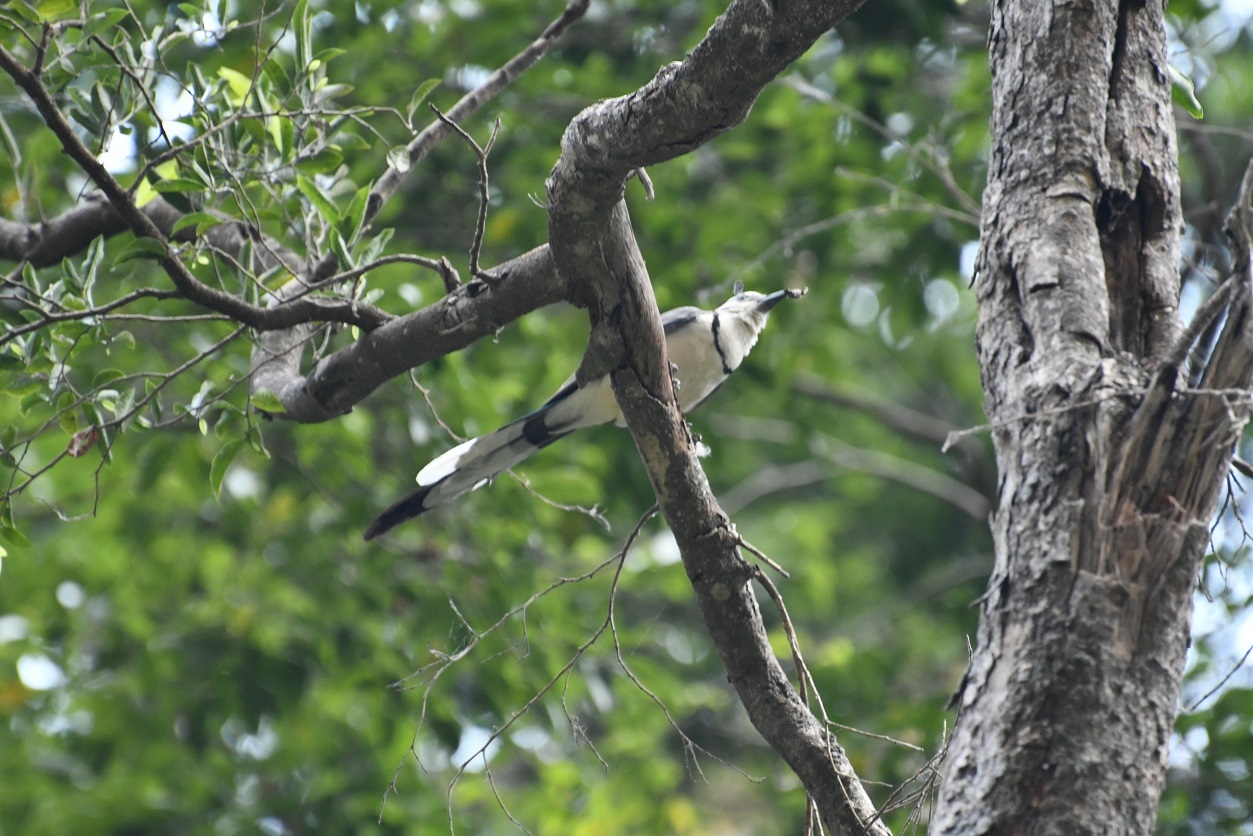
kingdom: Animalia
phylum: Chordata
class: Aves
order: Passeriformes
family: Corvidae
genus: Calocitta
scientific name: Calocitta formosa
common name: White-throated magpie-jay
